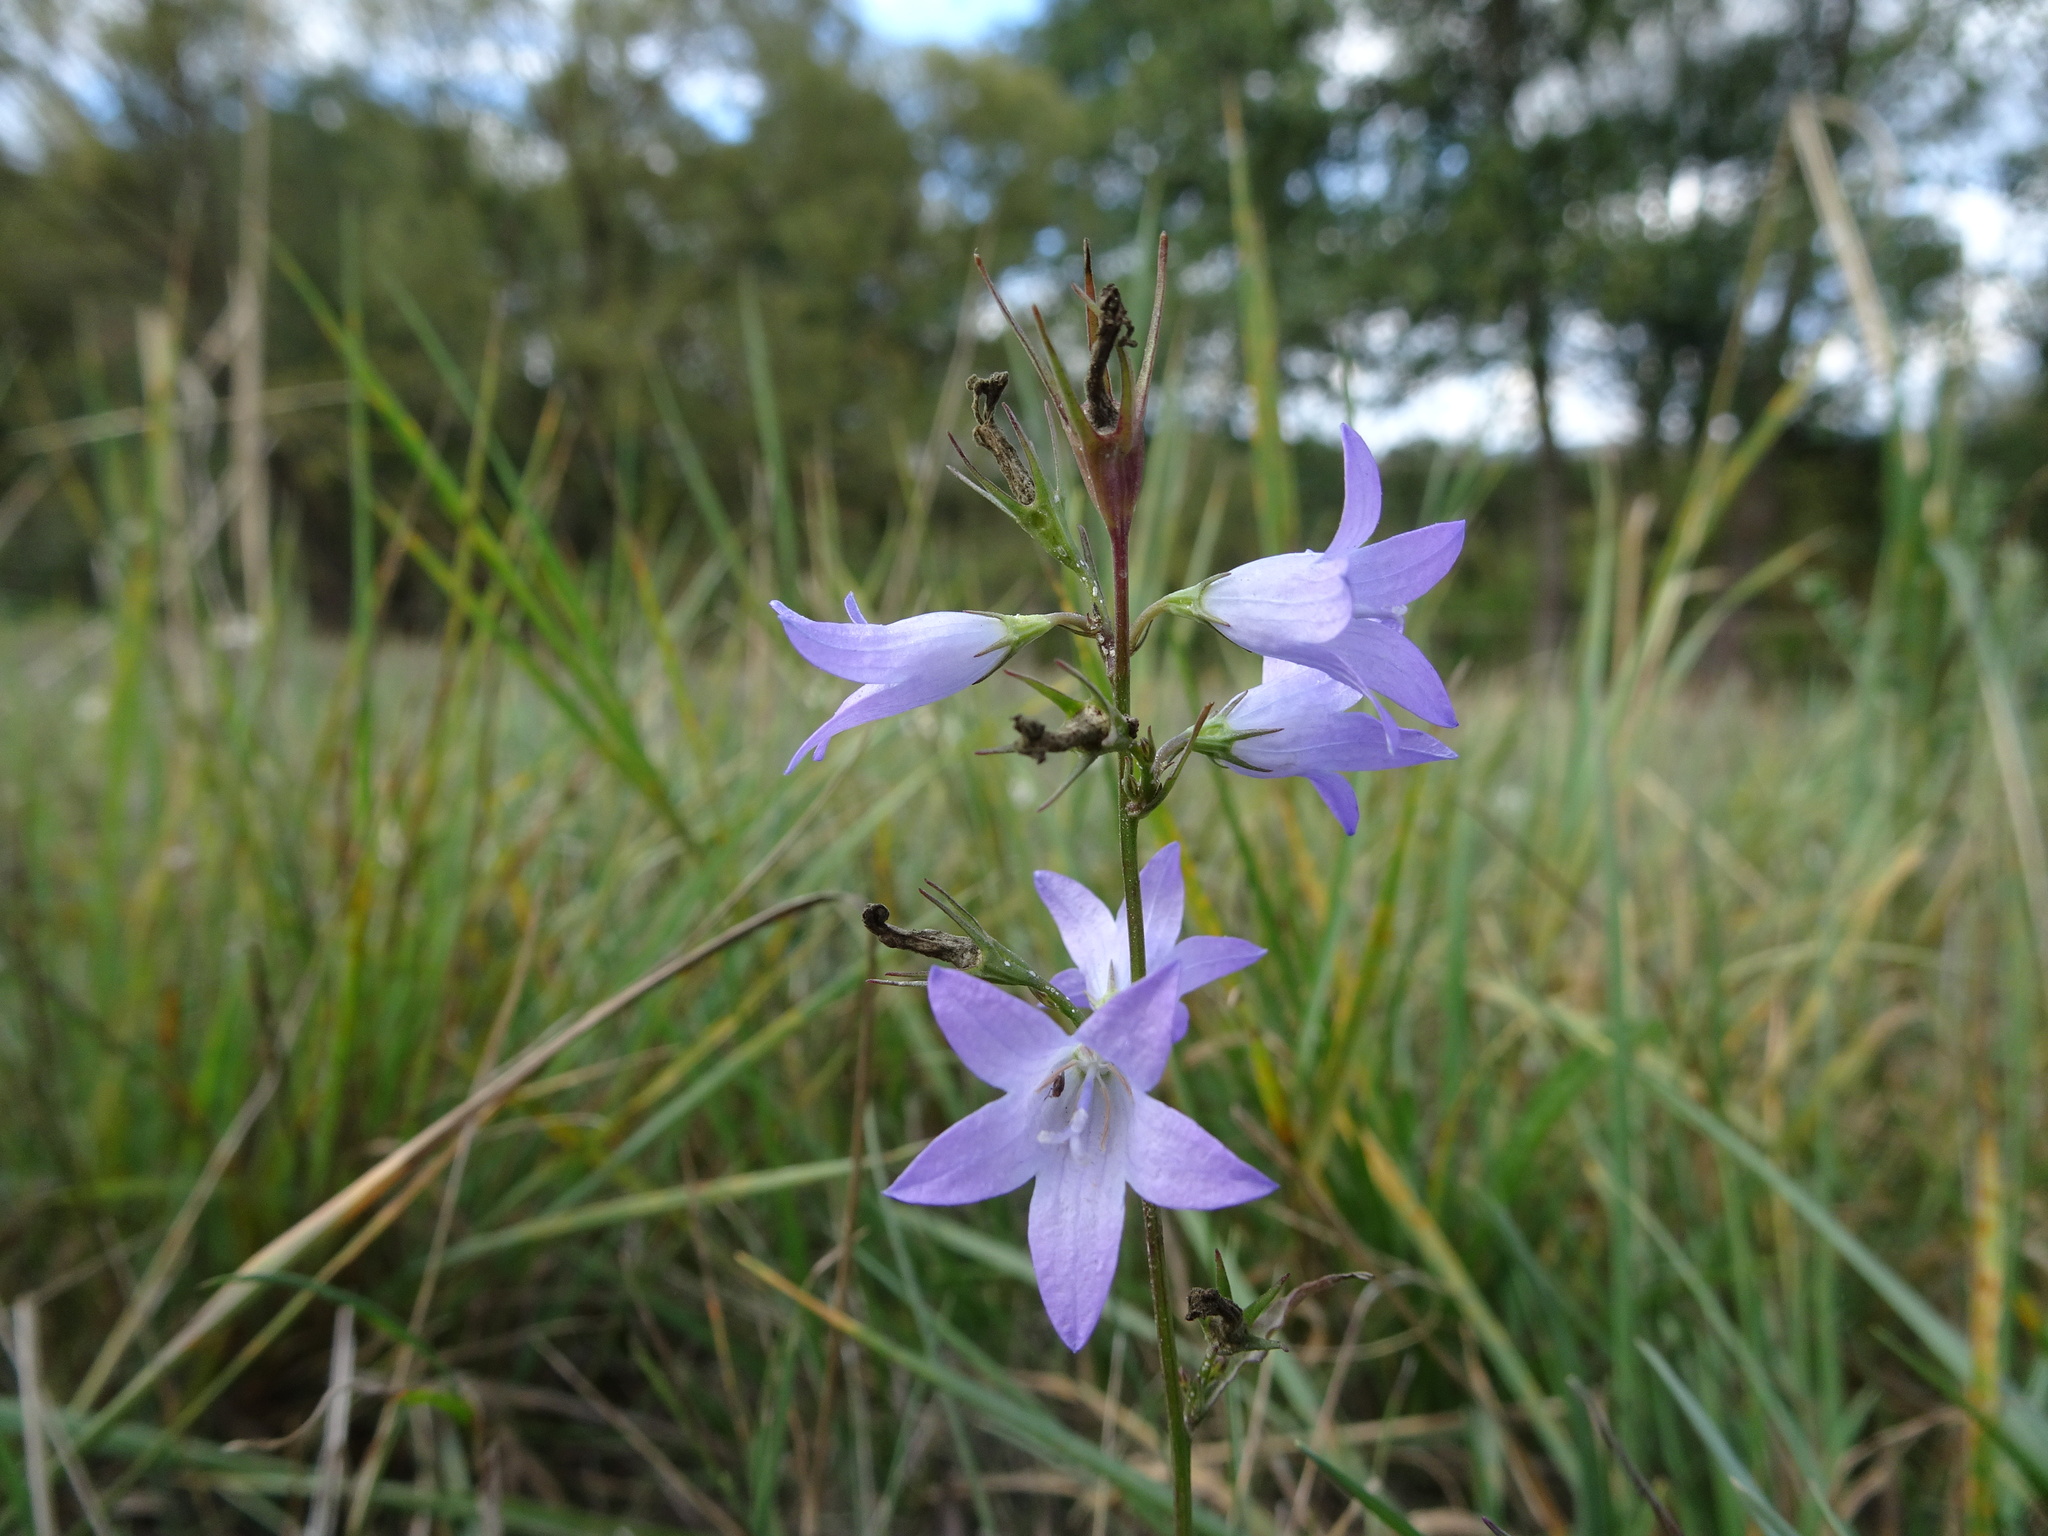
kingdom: Plantae
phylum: Tracheophyta
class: Magnoliopsida
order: Asterales
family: Campanulaceae
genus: Campanula
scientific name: Campanula rapunculus
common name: Rampion bellflower
